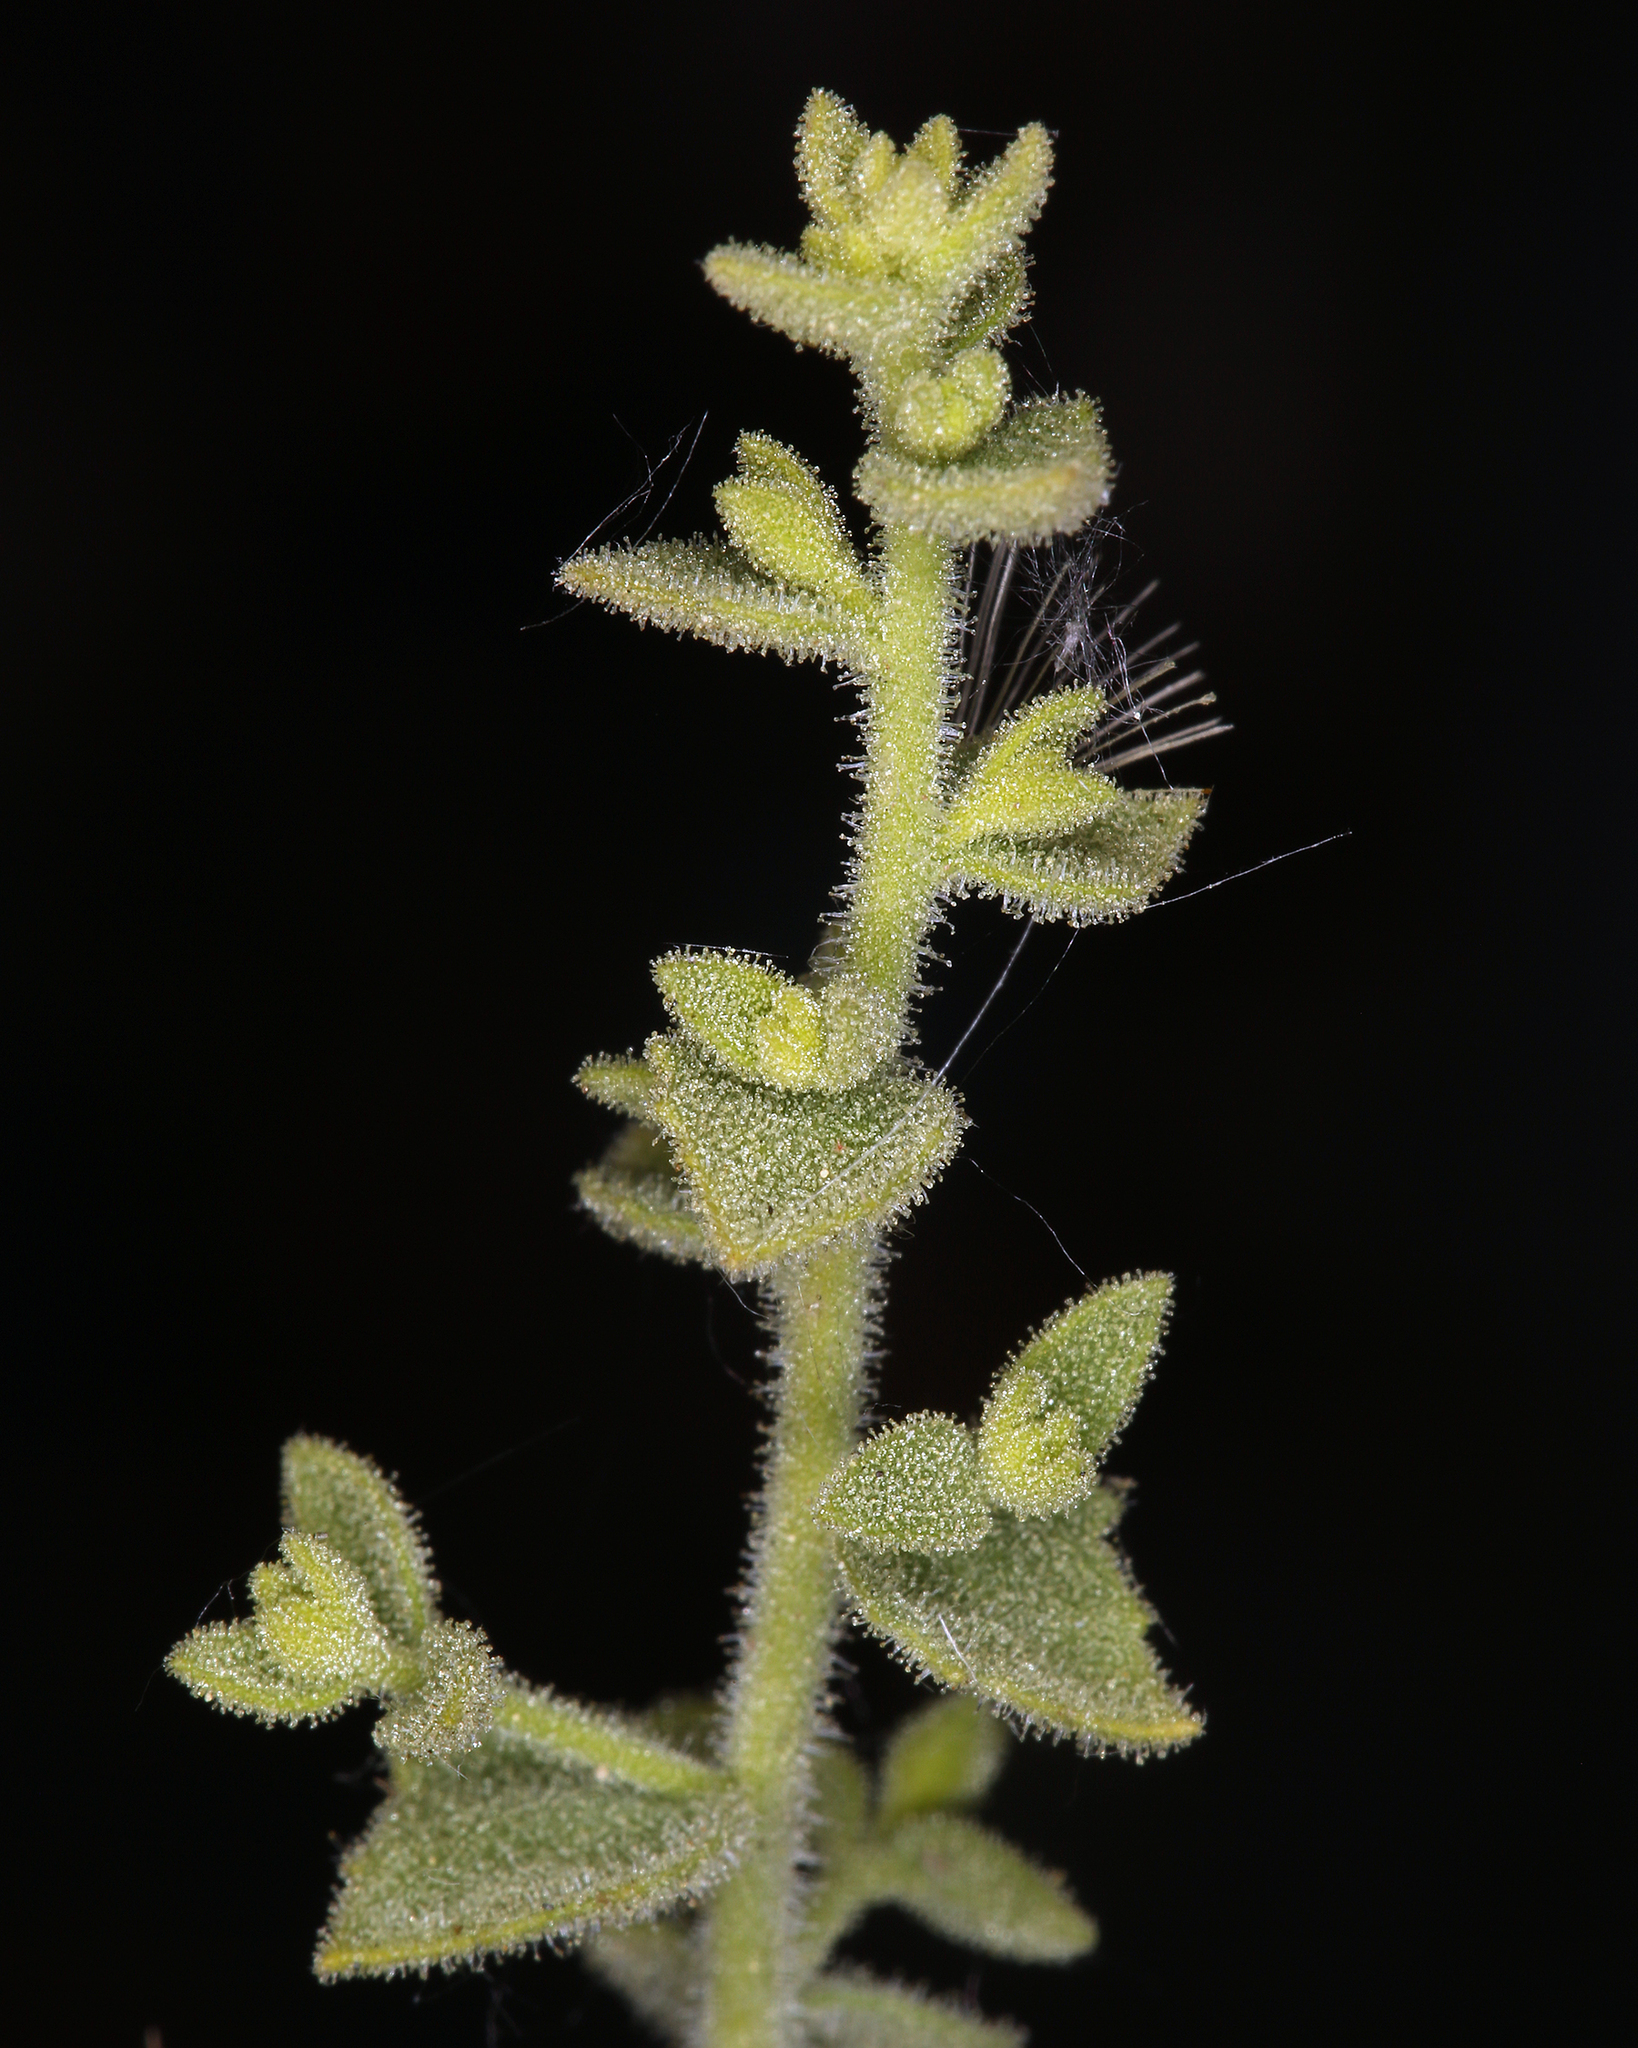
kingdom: Plantae
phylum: Tracheophyta
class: Magnoliopsida
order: Asterales
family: Asteraceae
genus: Brickellia
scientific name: Brickellia microphylla
